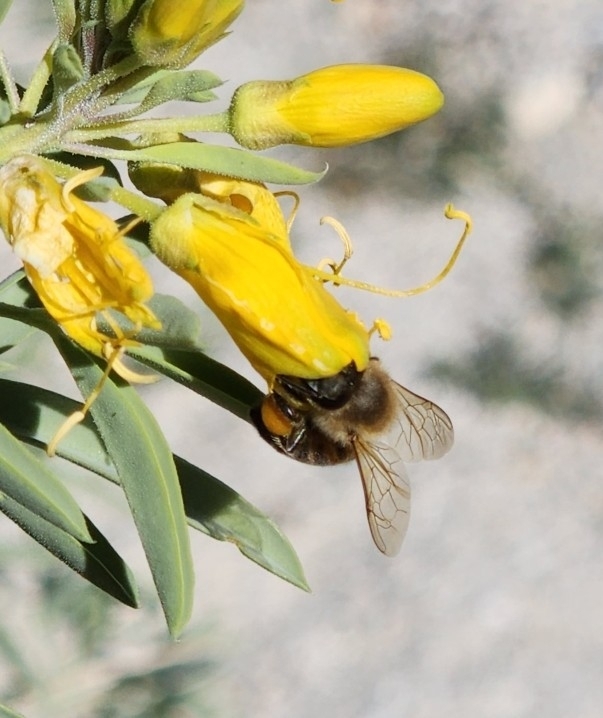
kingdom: Animalia
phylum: Arthropoda
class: Insecta
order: Hymenoptera
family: Apidae
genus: Apis
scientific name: Apis mellifera
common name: Honey bee
